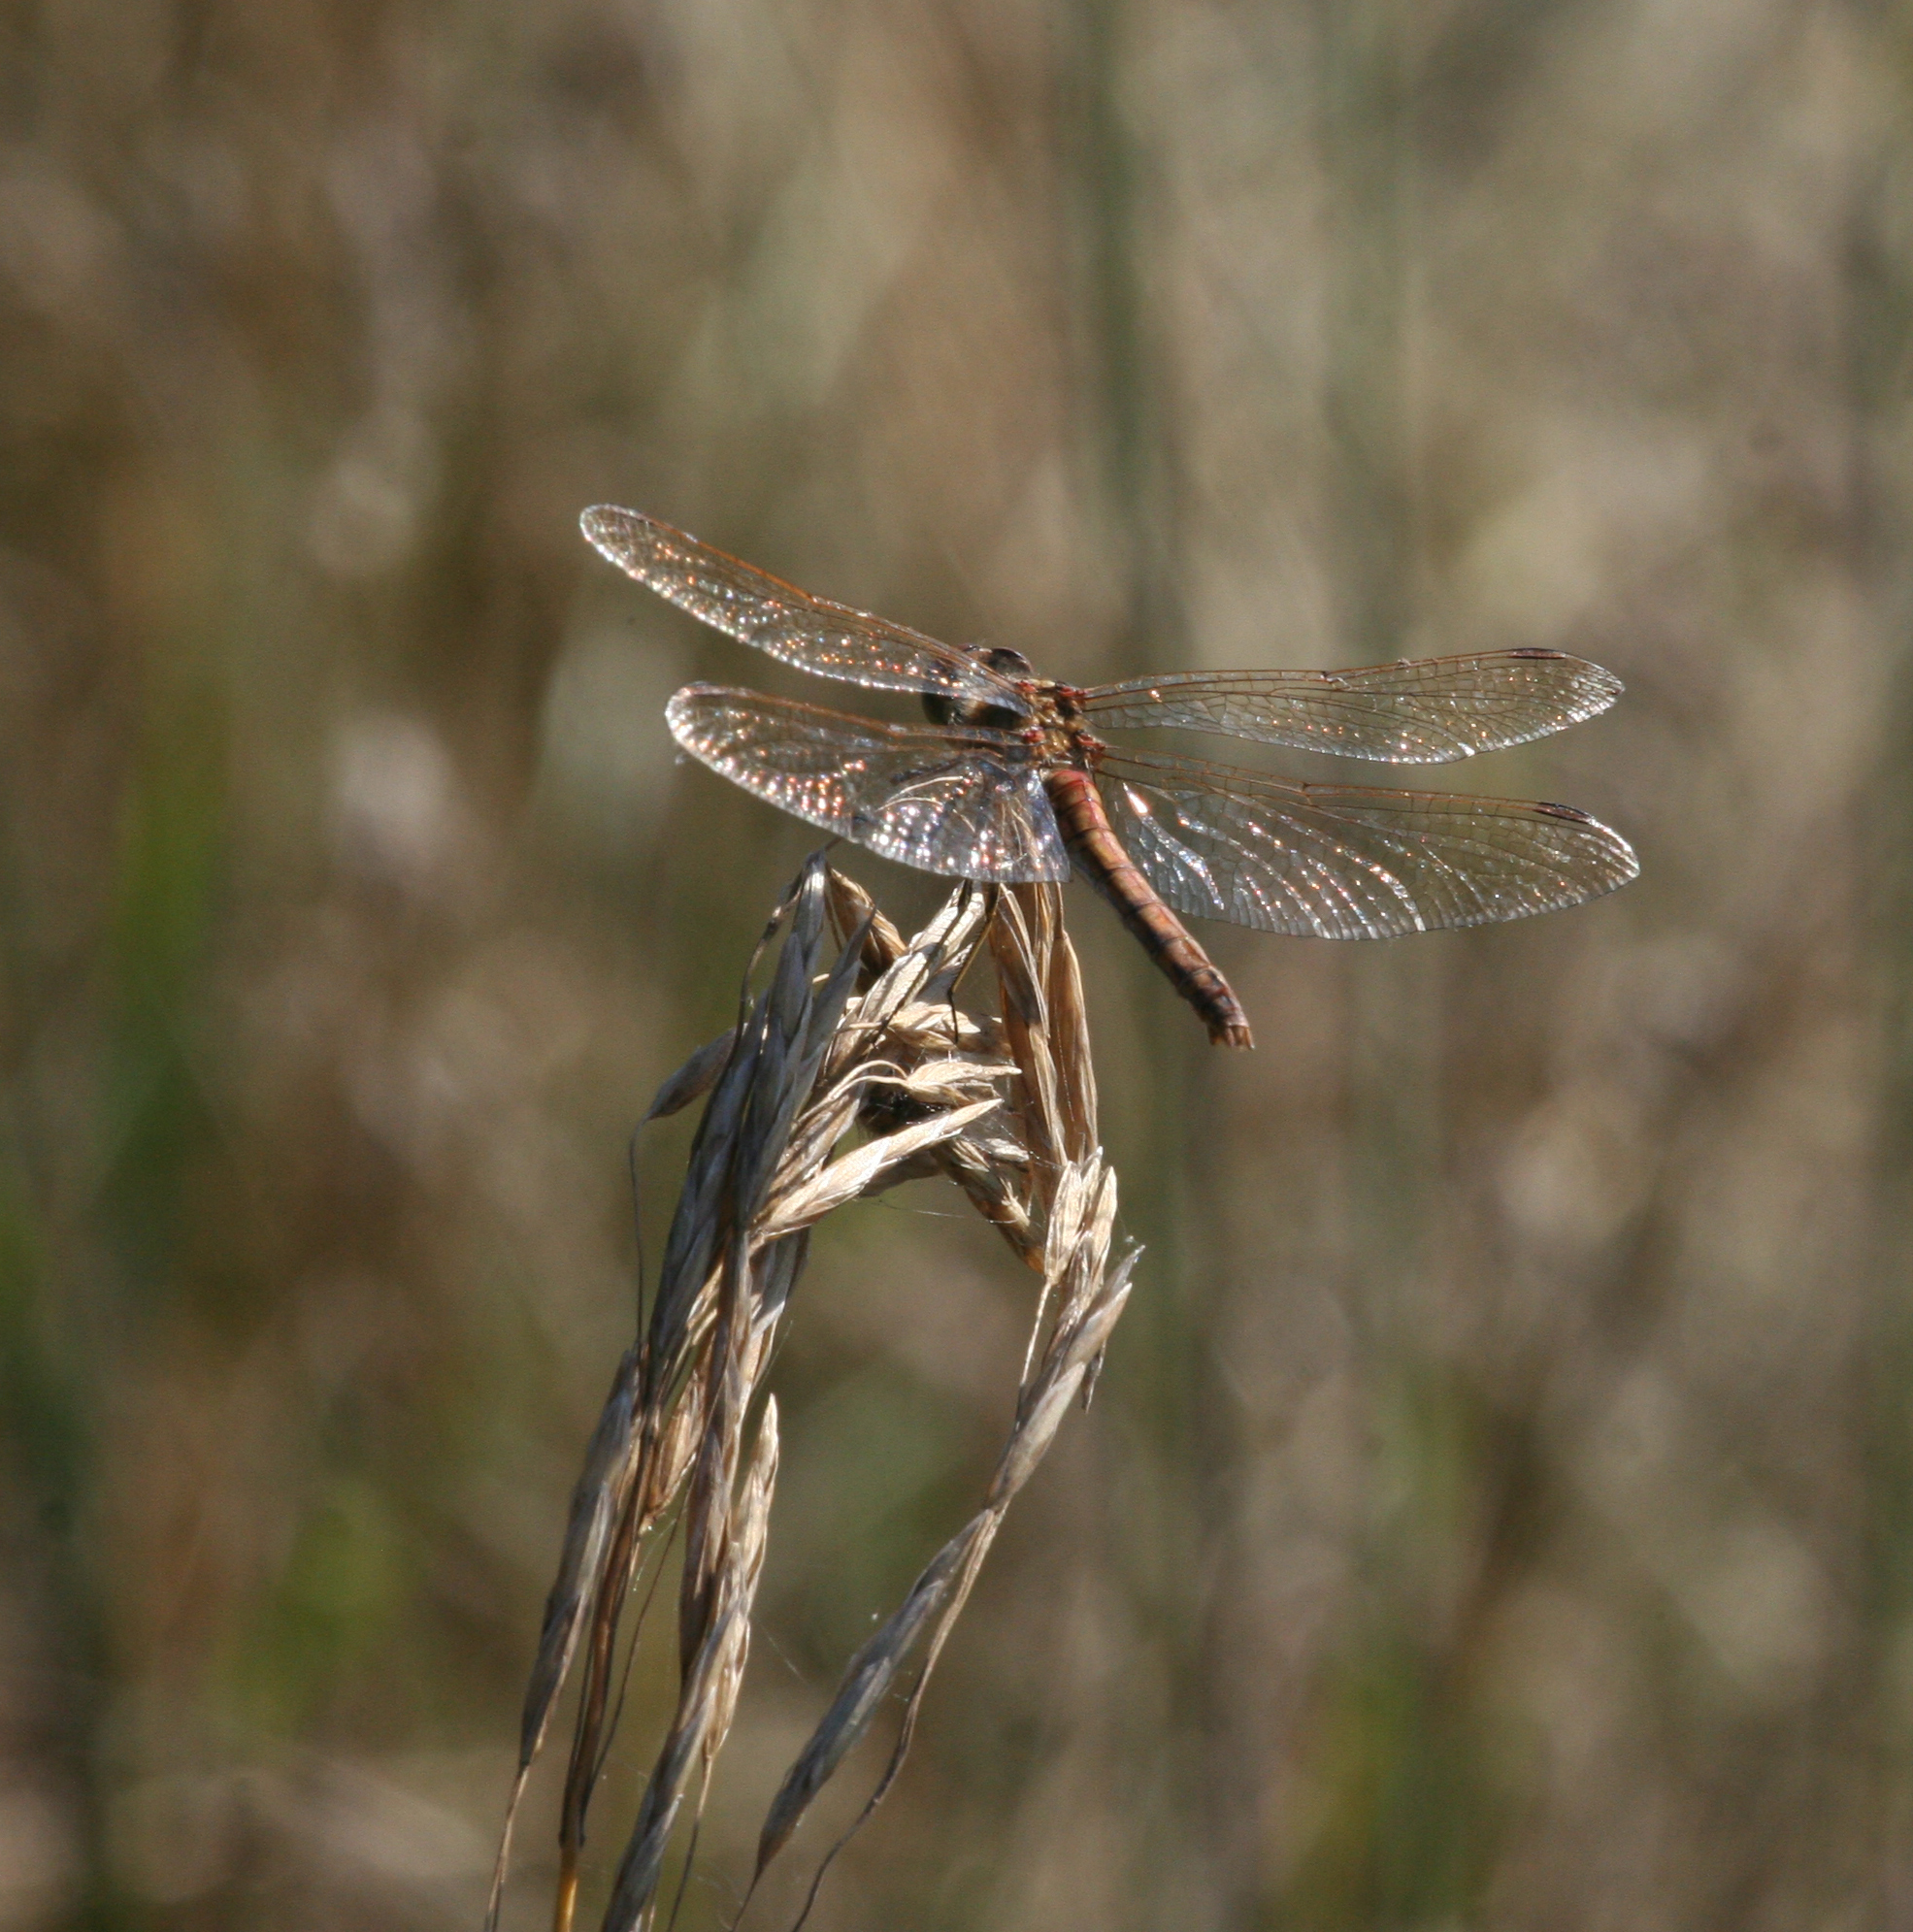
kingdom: Animalia
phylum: Arthropoda
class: Insecta
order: Odonata
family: Libellulidae
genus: Sympetrum
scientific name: Sympetrum vulgatum
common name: Vagrant darter
